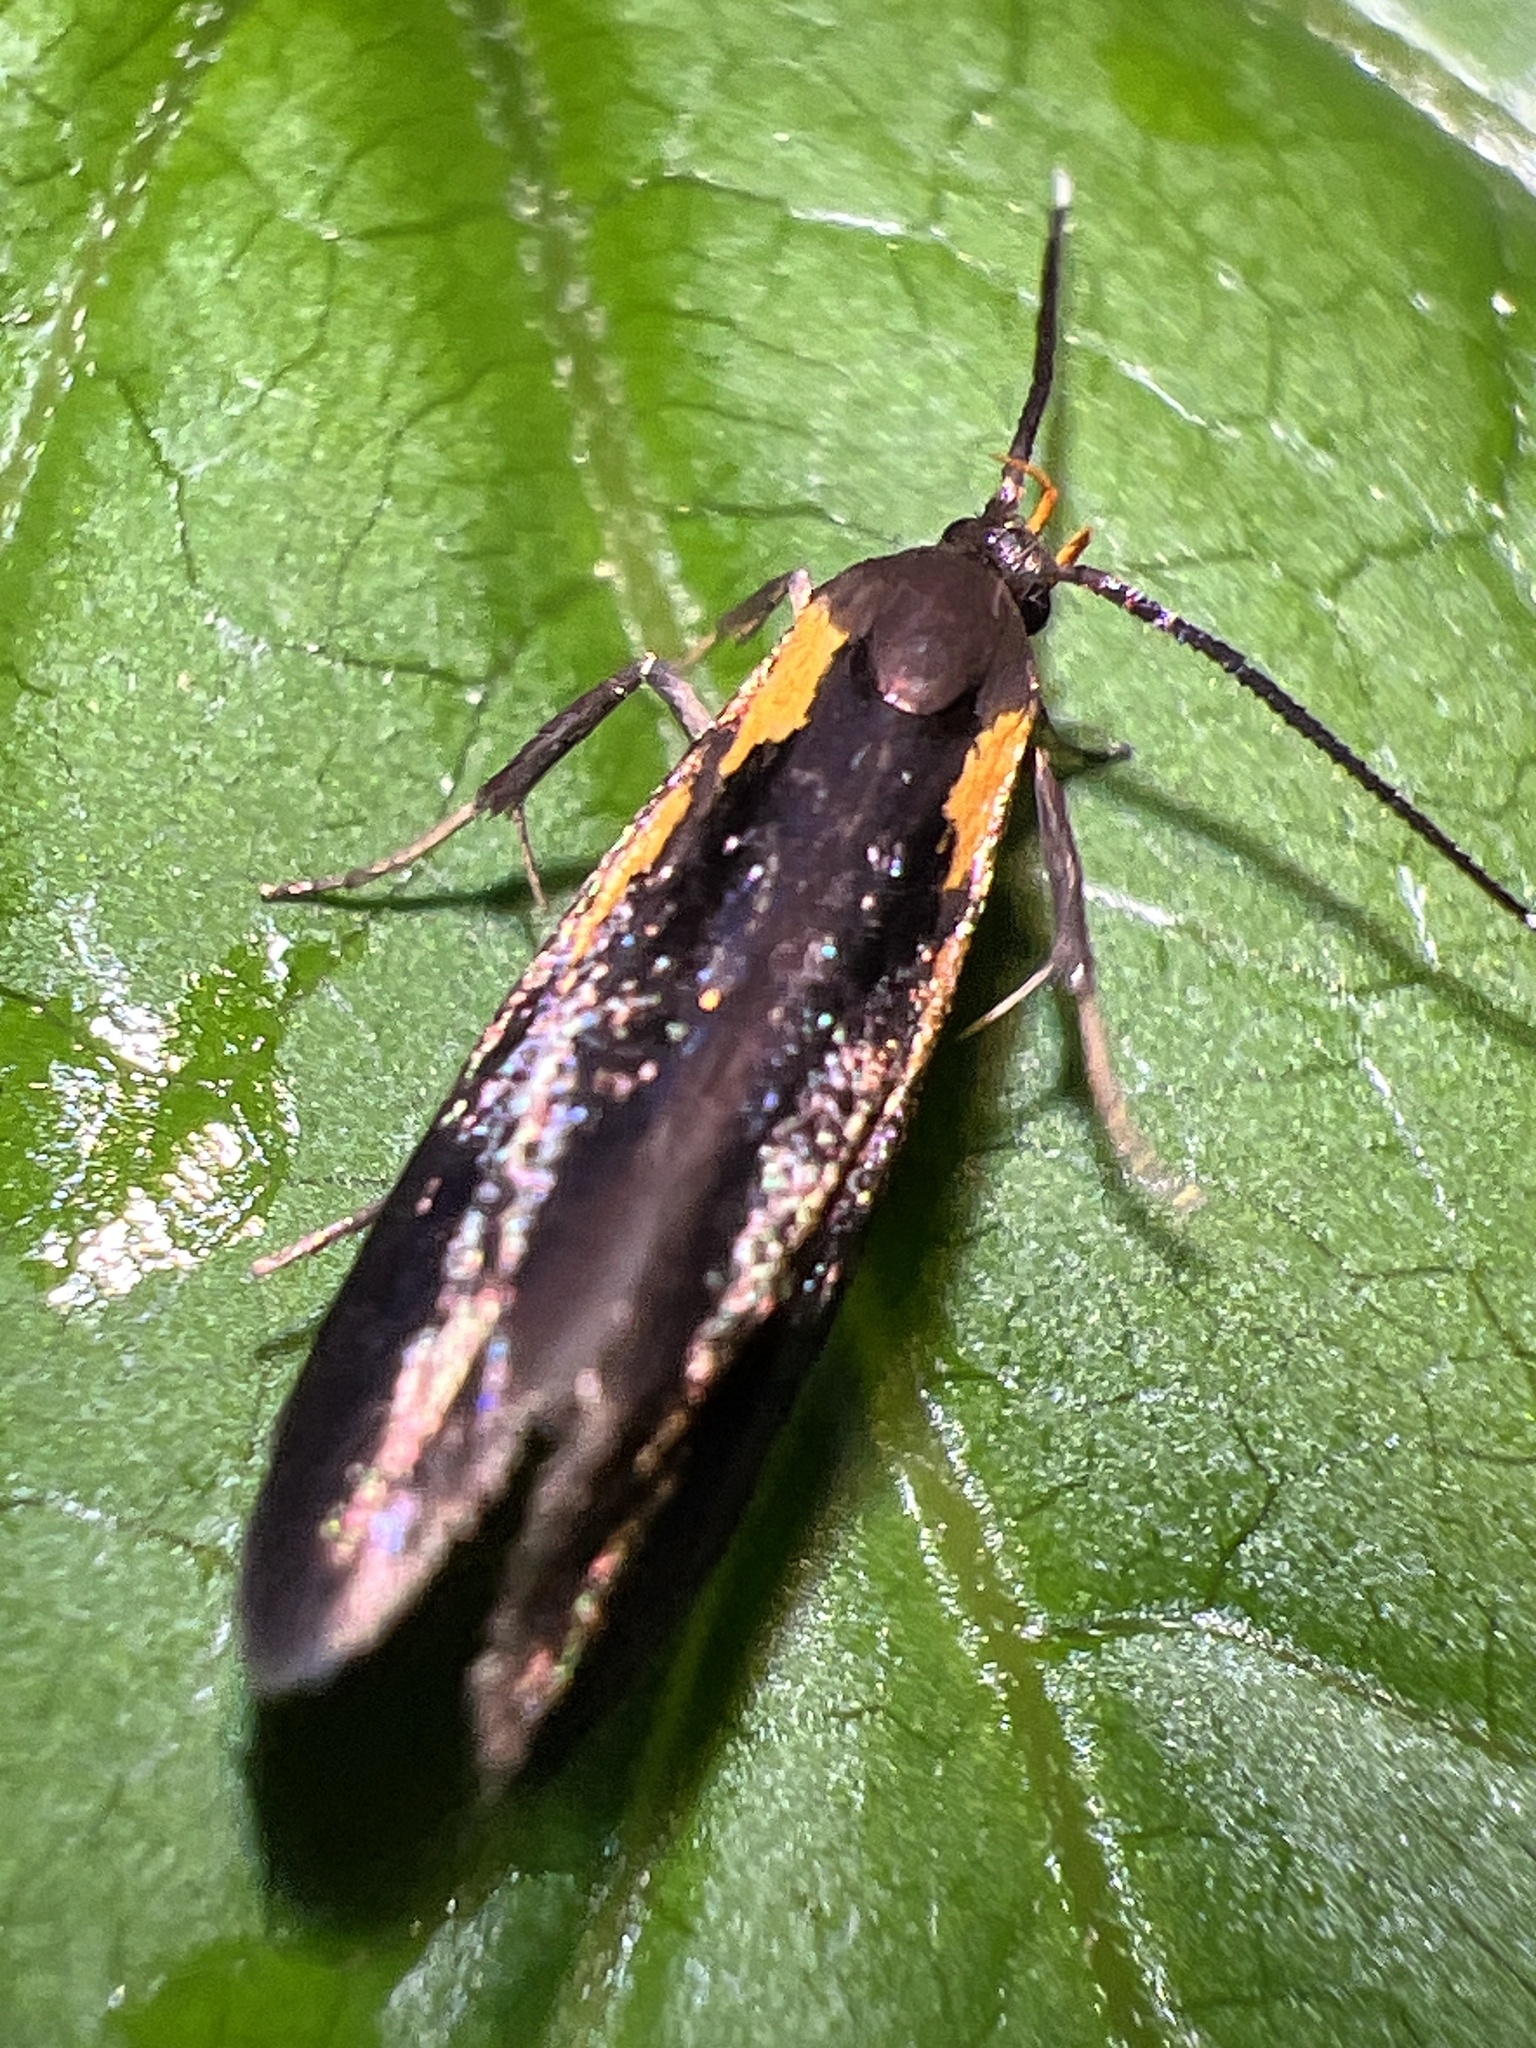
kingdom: Animalia
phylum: Arthropoda
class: Insecta
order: Lepidoptera
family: Oecophoridae
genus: Mathildana
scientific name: Mathildana newmanella
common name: Newman's mathildana moth
